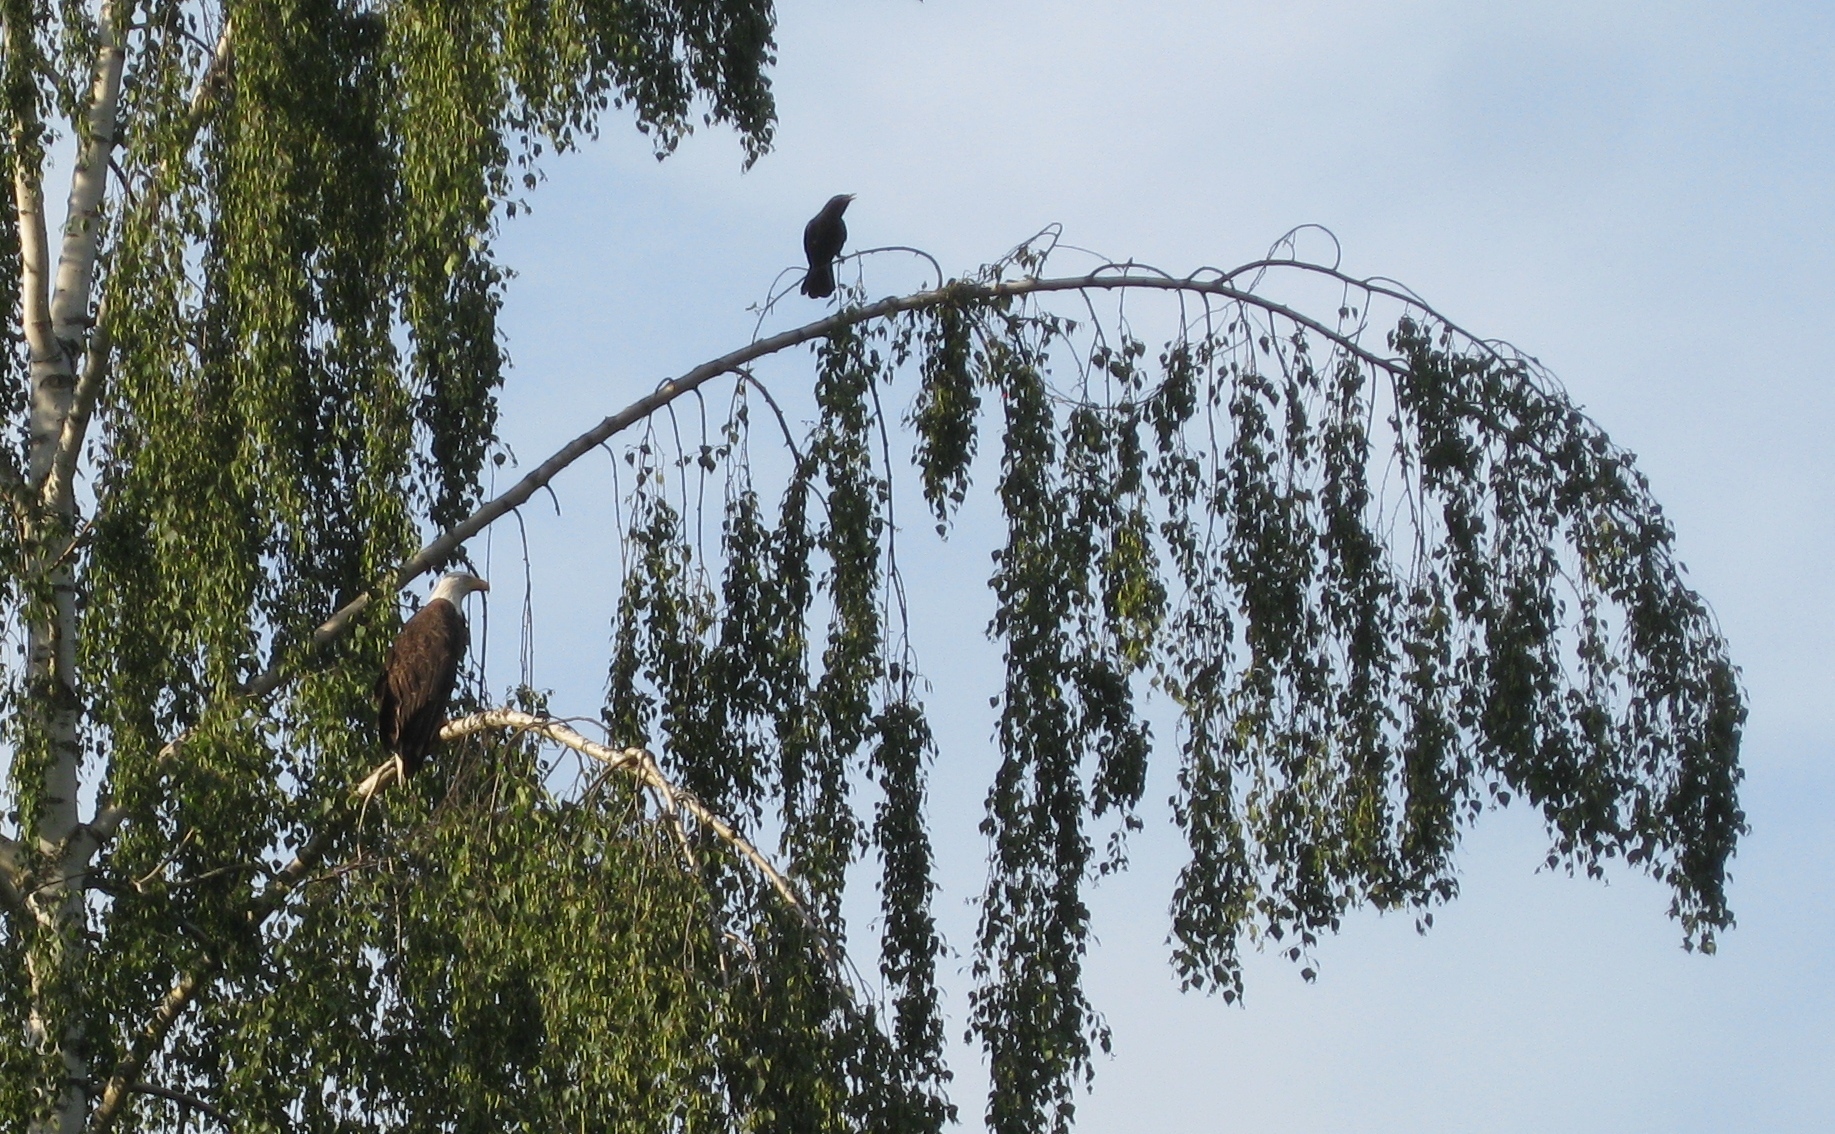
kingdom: Animalia
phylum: Chordata
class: Aves
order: Accipitriformes
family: Accipitridae
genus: Haliaeetus
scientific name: Haliaeetus leucocephalus
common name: Bald eagle
